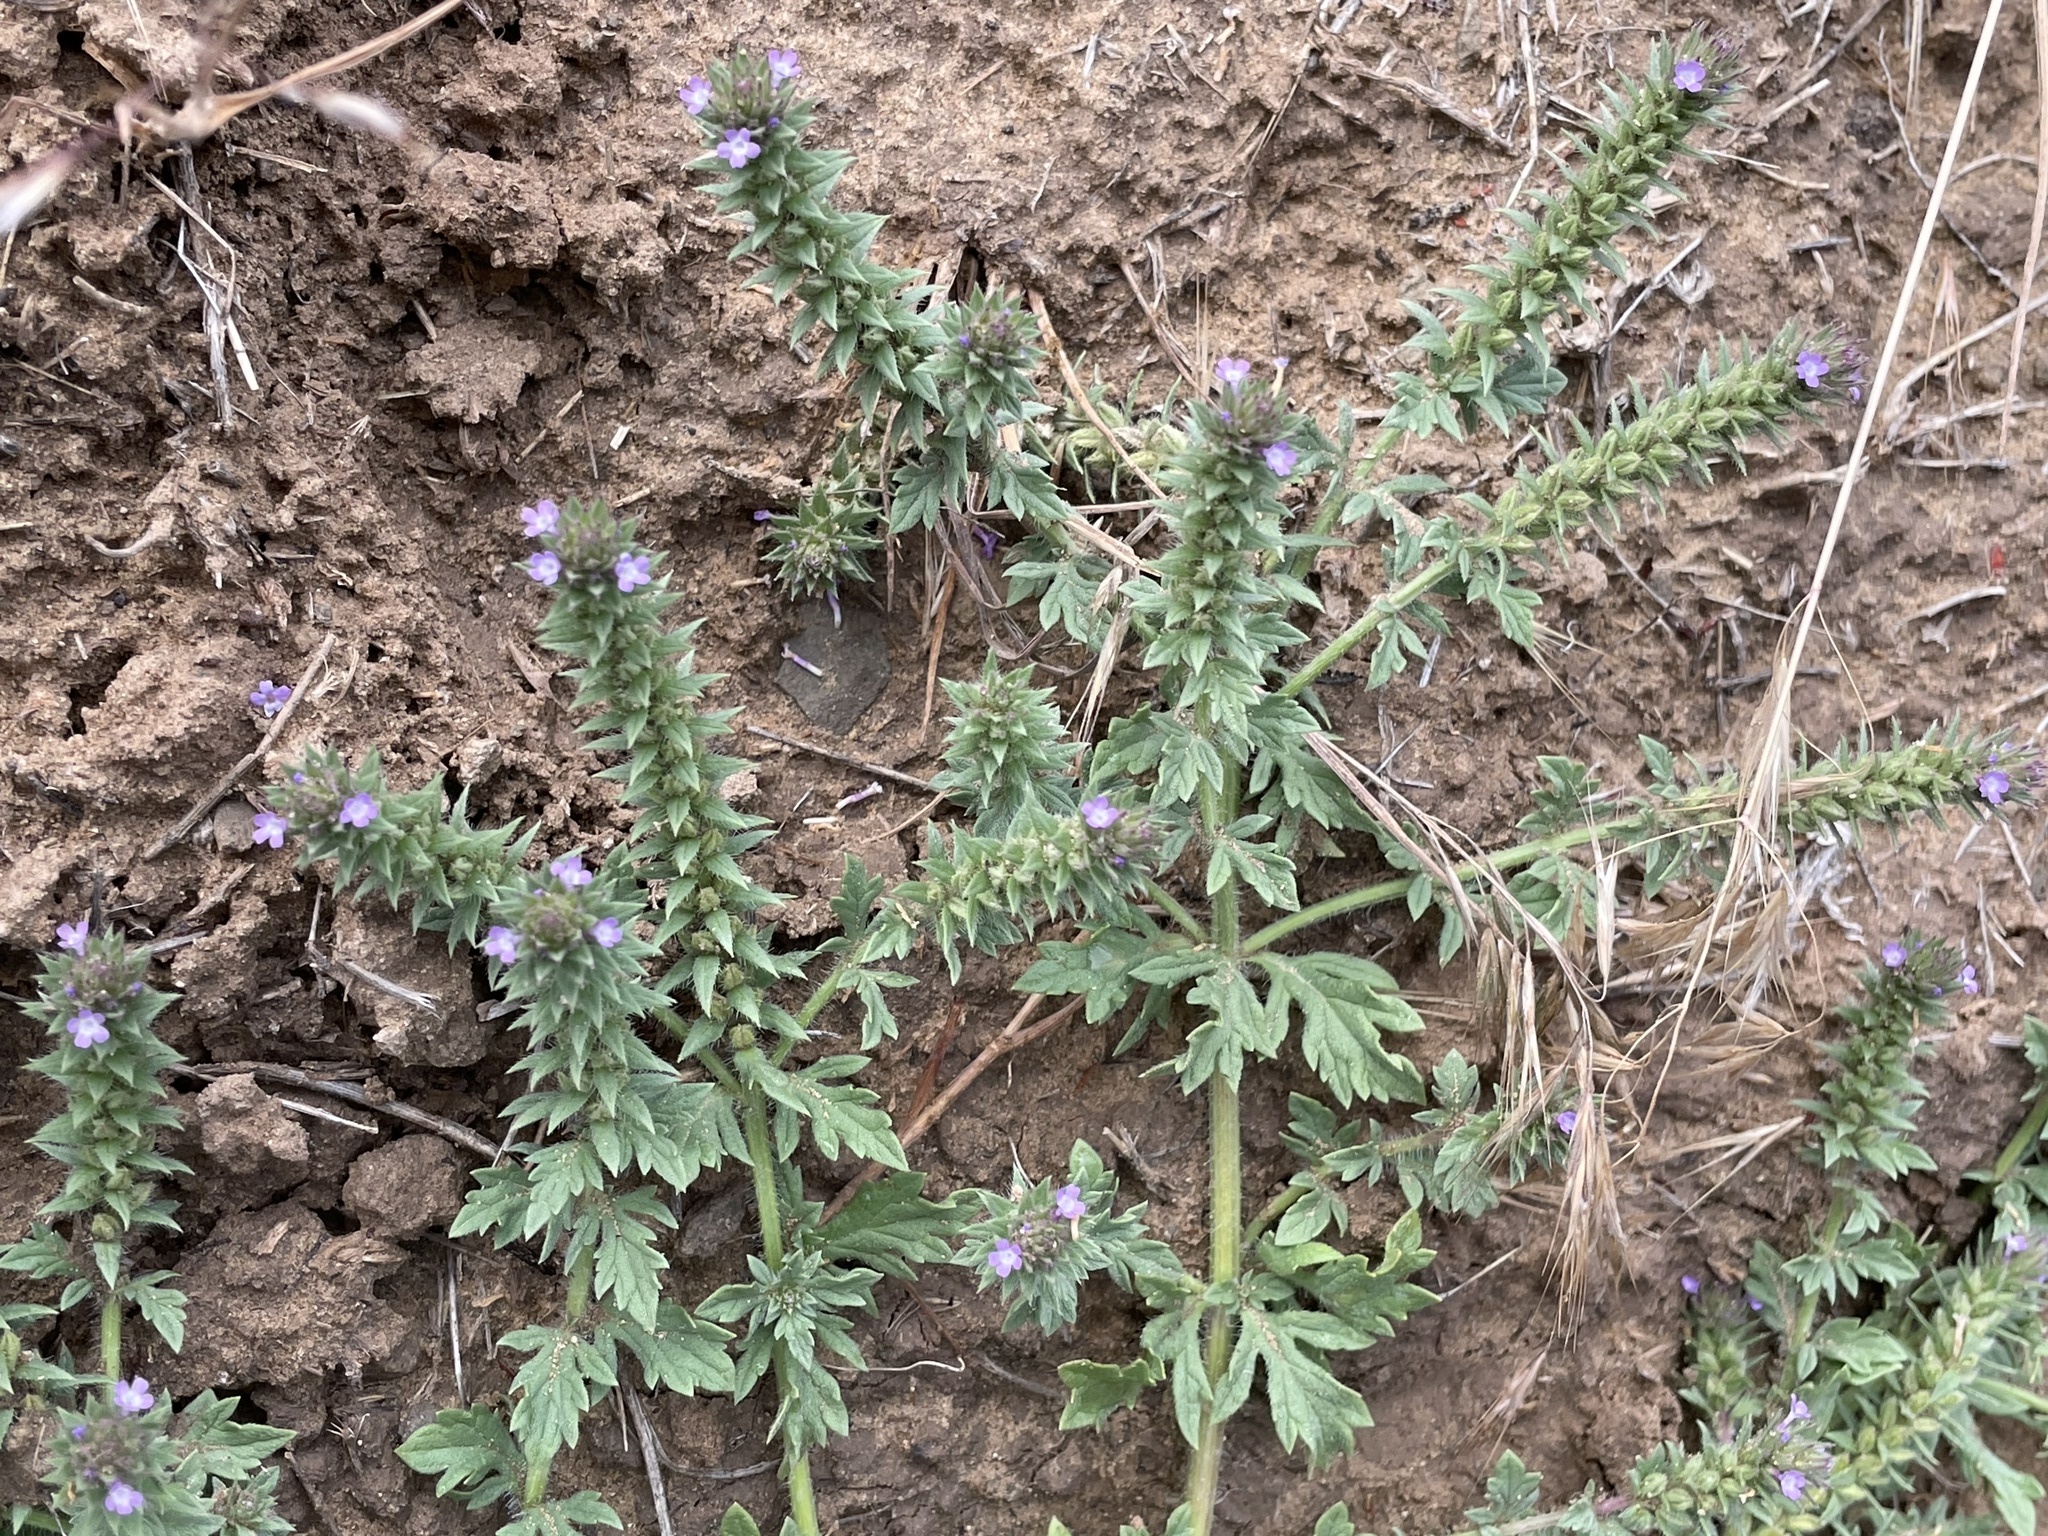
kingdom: Plantae
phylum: Tracheophyta
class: Magnoliopsida
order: Lamiales
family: Verbenaceae
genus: Verbena
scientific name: Verbena bracteata
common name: Bracted vervain
